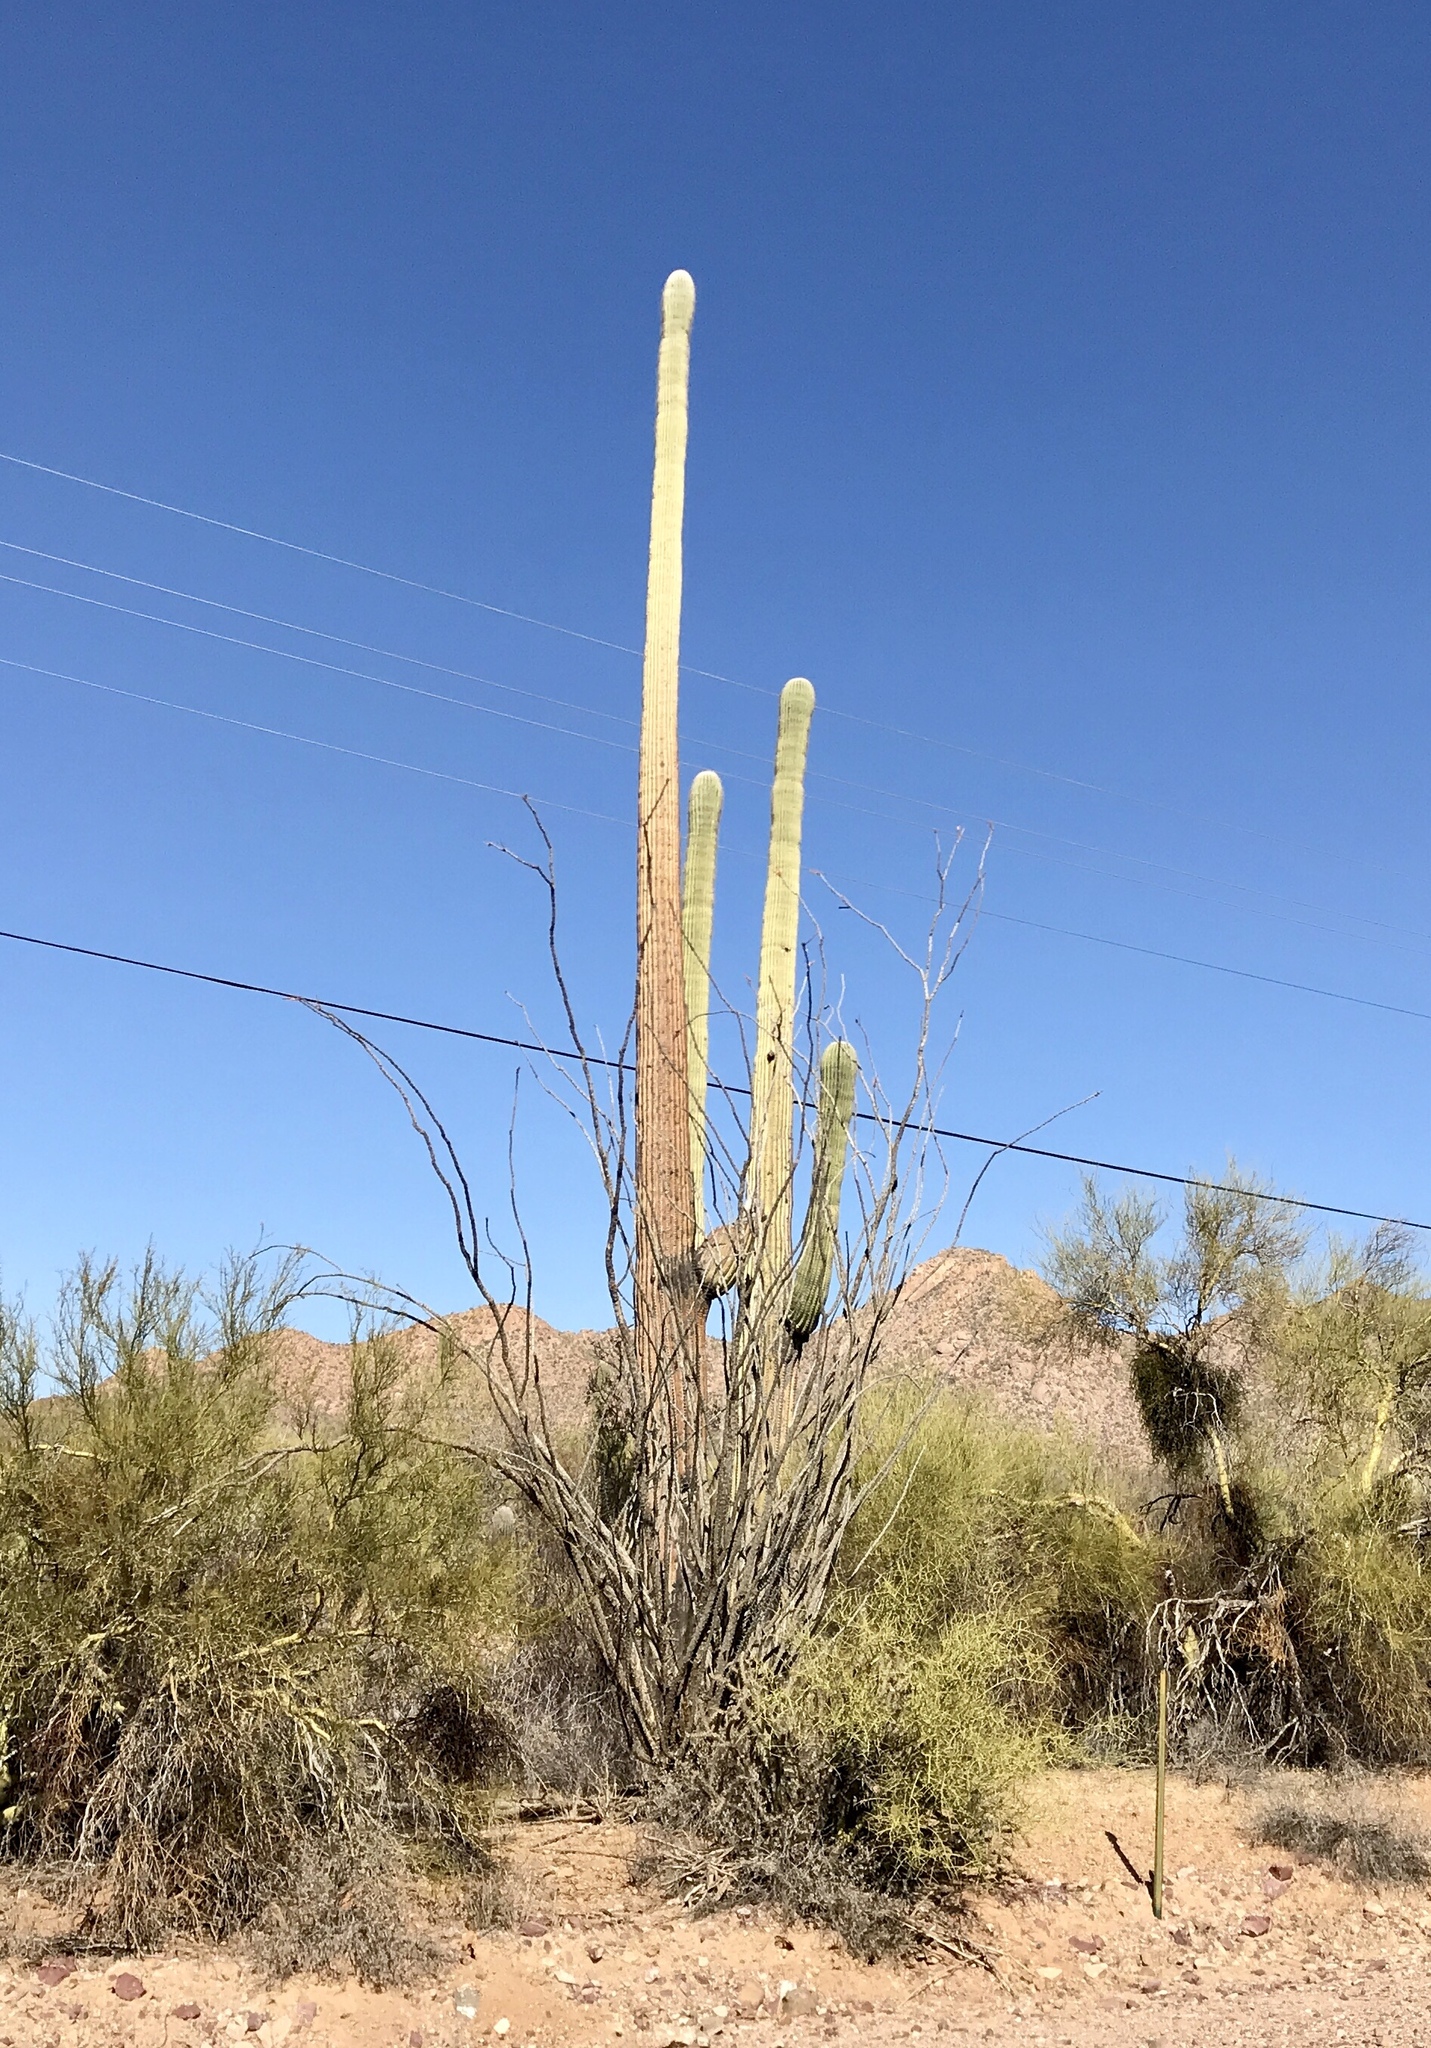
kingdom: Plantae
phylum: Tracheophyta
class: Magnoliopsida
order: Caryophyllales
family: Cactaceae
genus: Carnegiea
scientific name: Carnegiea gigantea
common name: Saguaro
